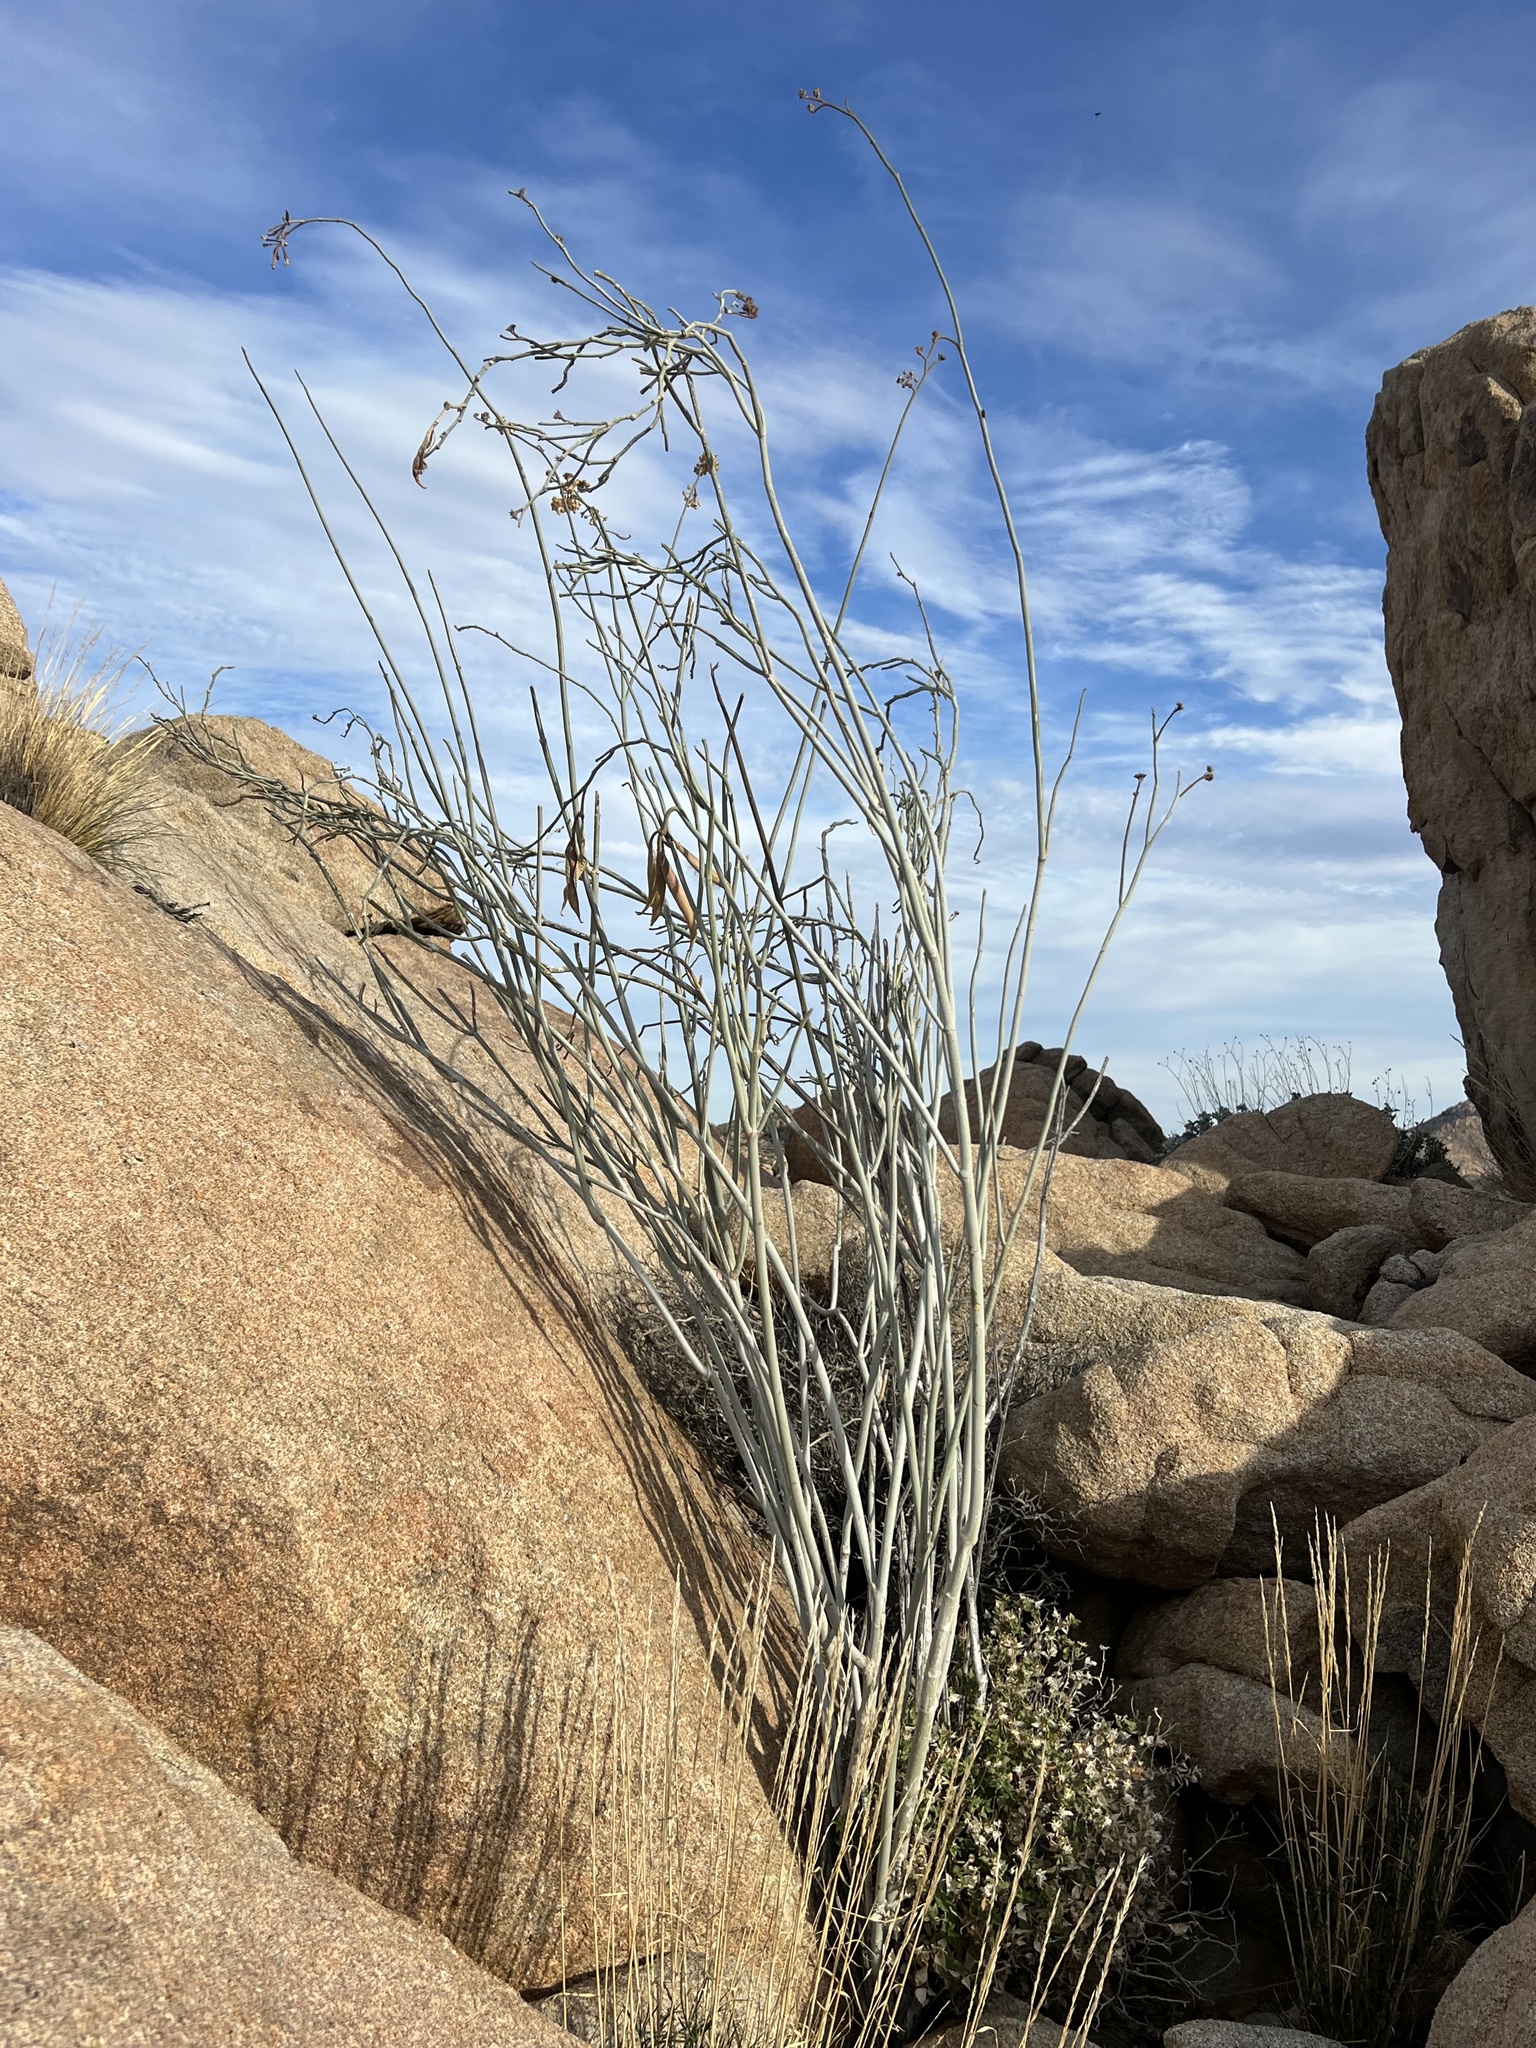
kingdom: Plantae
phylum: Tracheophyta
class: Magnoliopsida
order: Gentianales
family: Apocynaceae
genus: Asclepias
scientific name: Asclepias albicans
